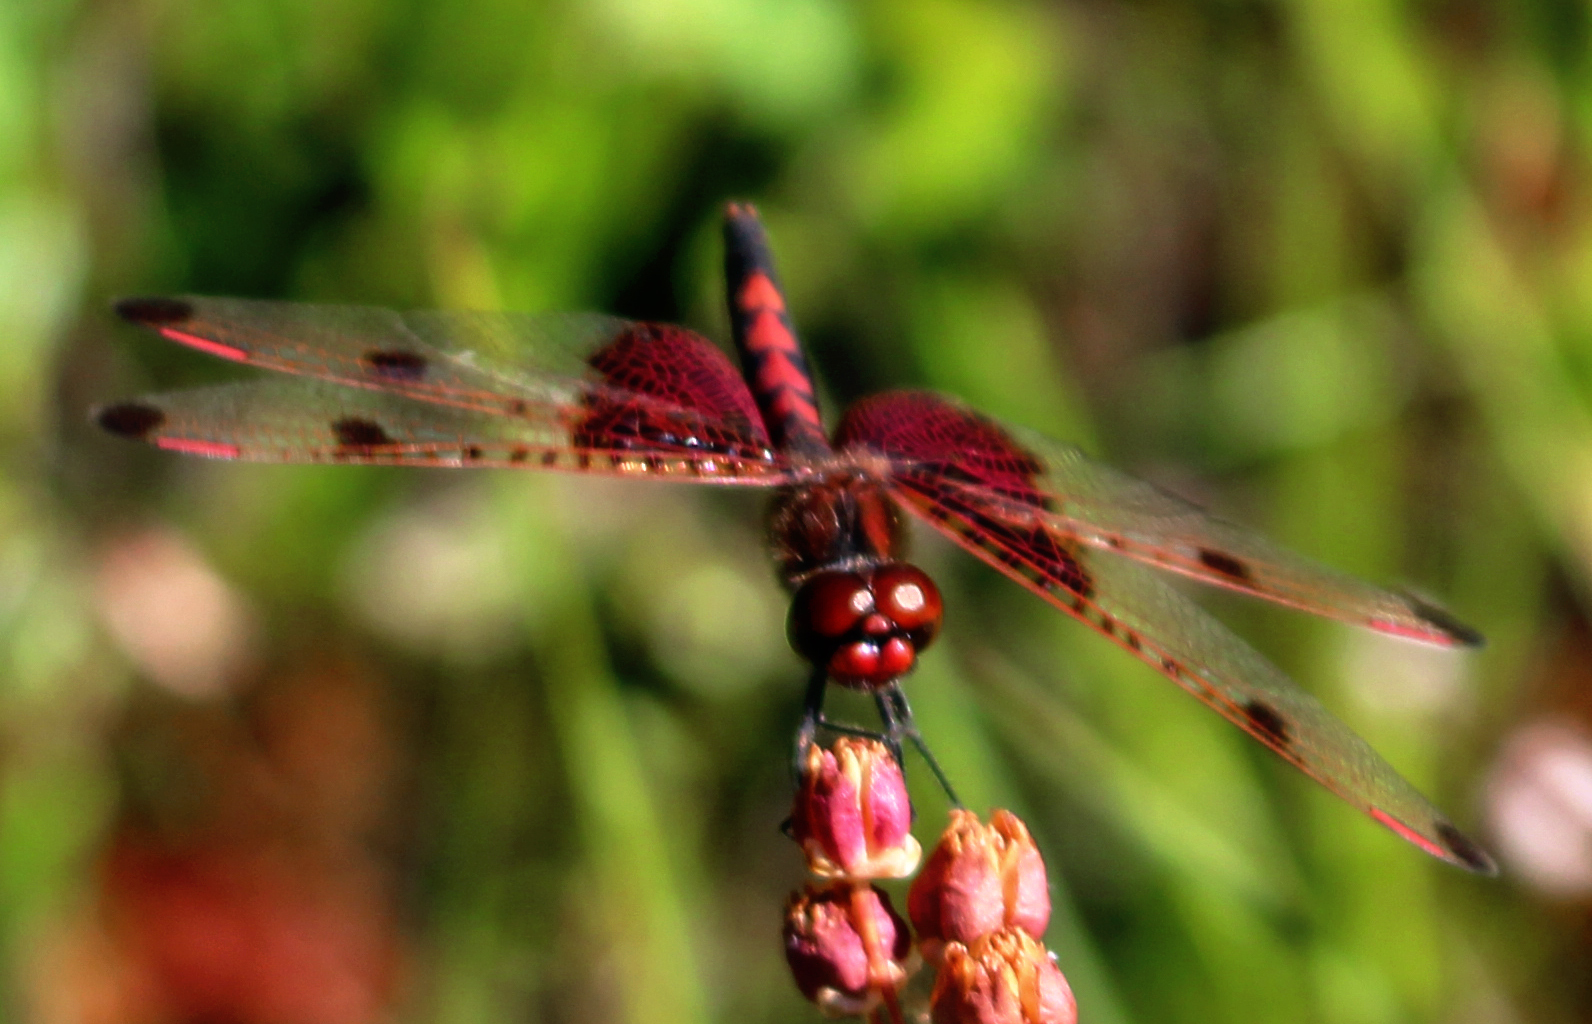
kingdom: Animalia
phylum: Arthropoda
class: Insecta
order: Odonata
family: Libellulidae
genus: Celithemis
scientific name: Celithemis elisa
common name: Calico pennant
